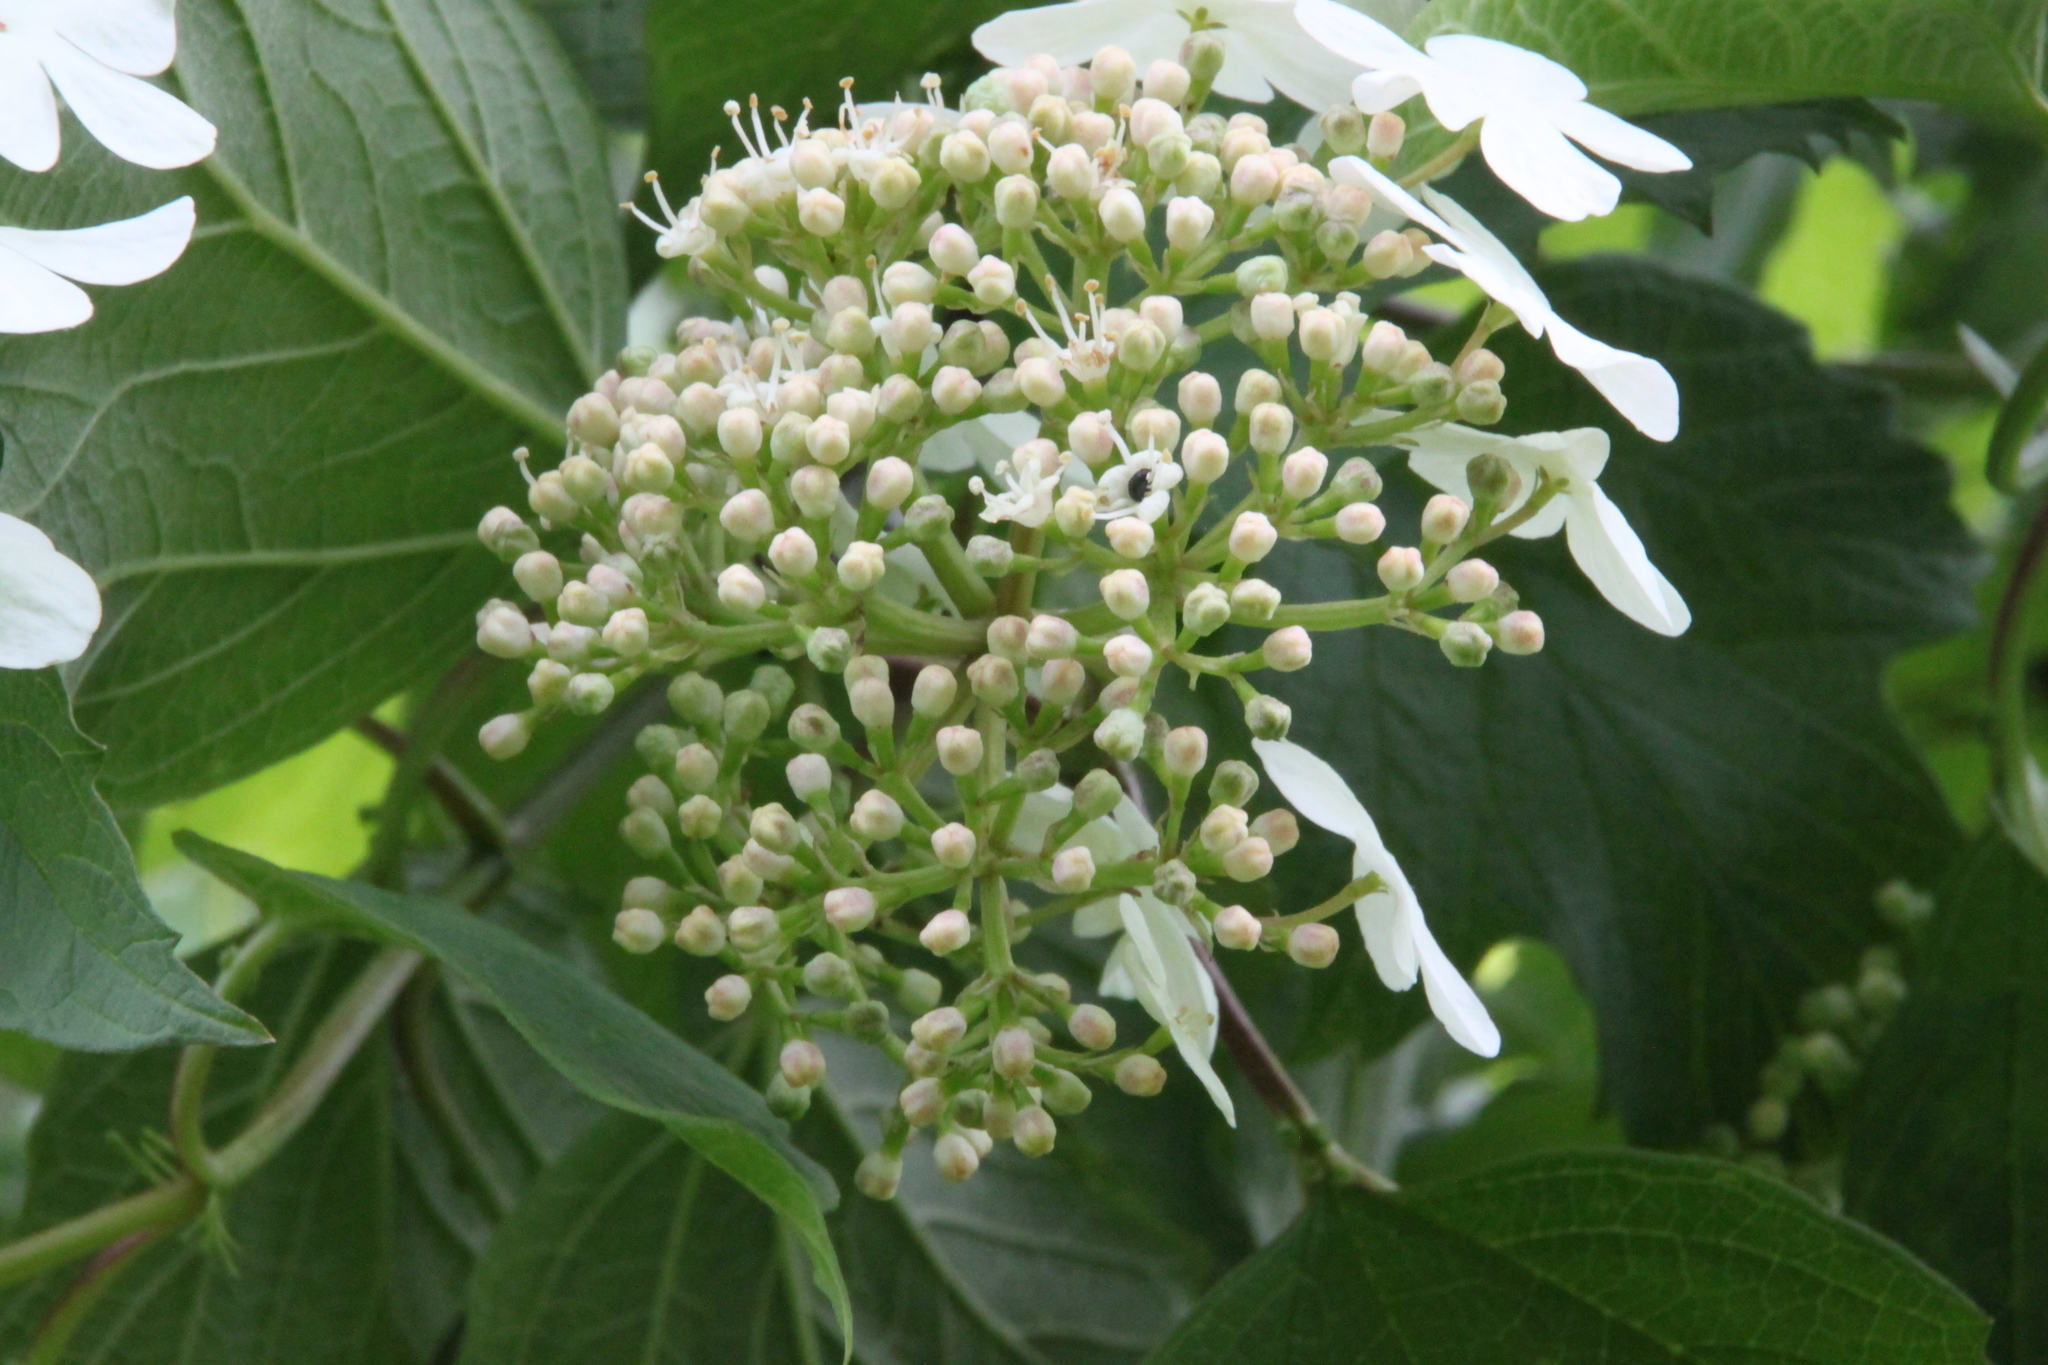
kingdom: Plantae
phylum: Tracheophyta
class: Magnoliopsida
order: Dipsacales
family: Viburnaceae
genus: Viburnum
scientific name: Viburnum opulus
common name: Guelder-rose
